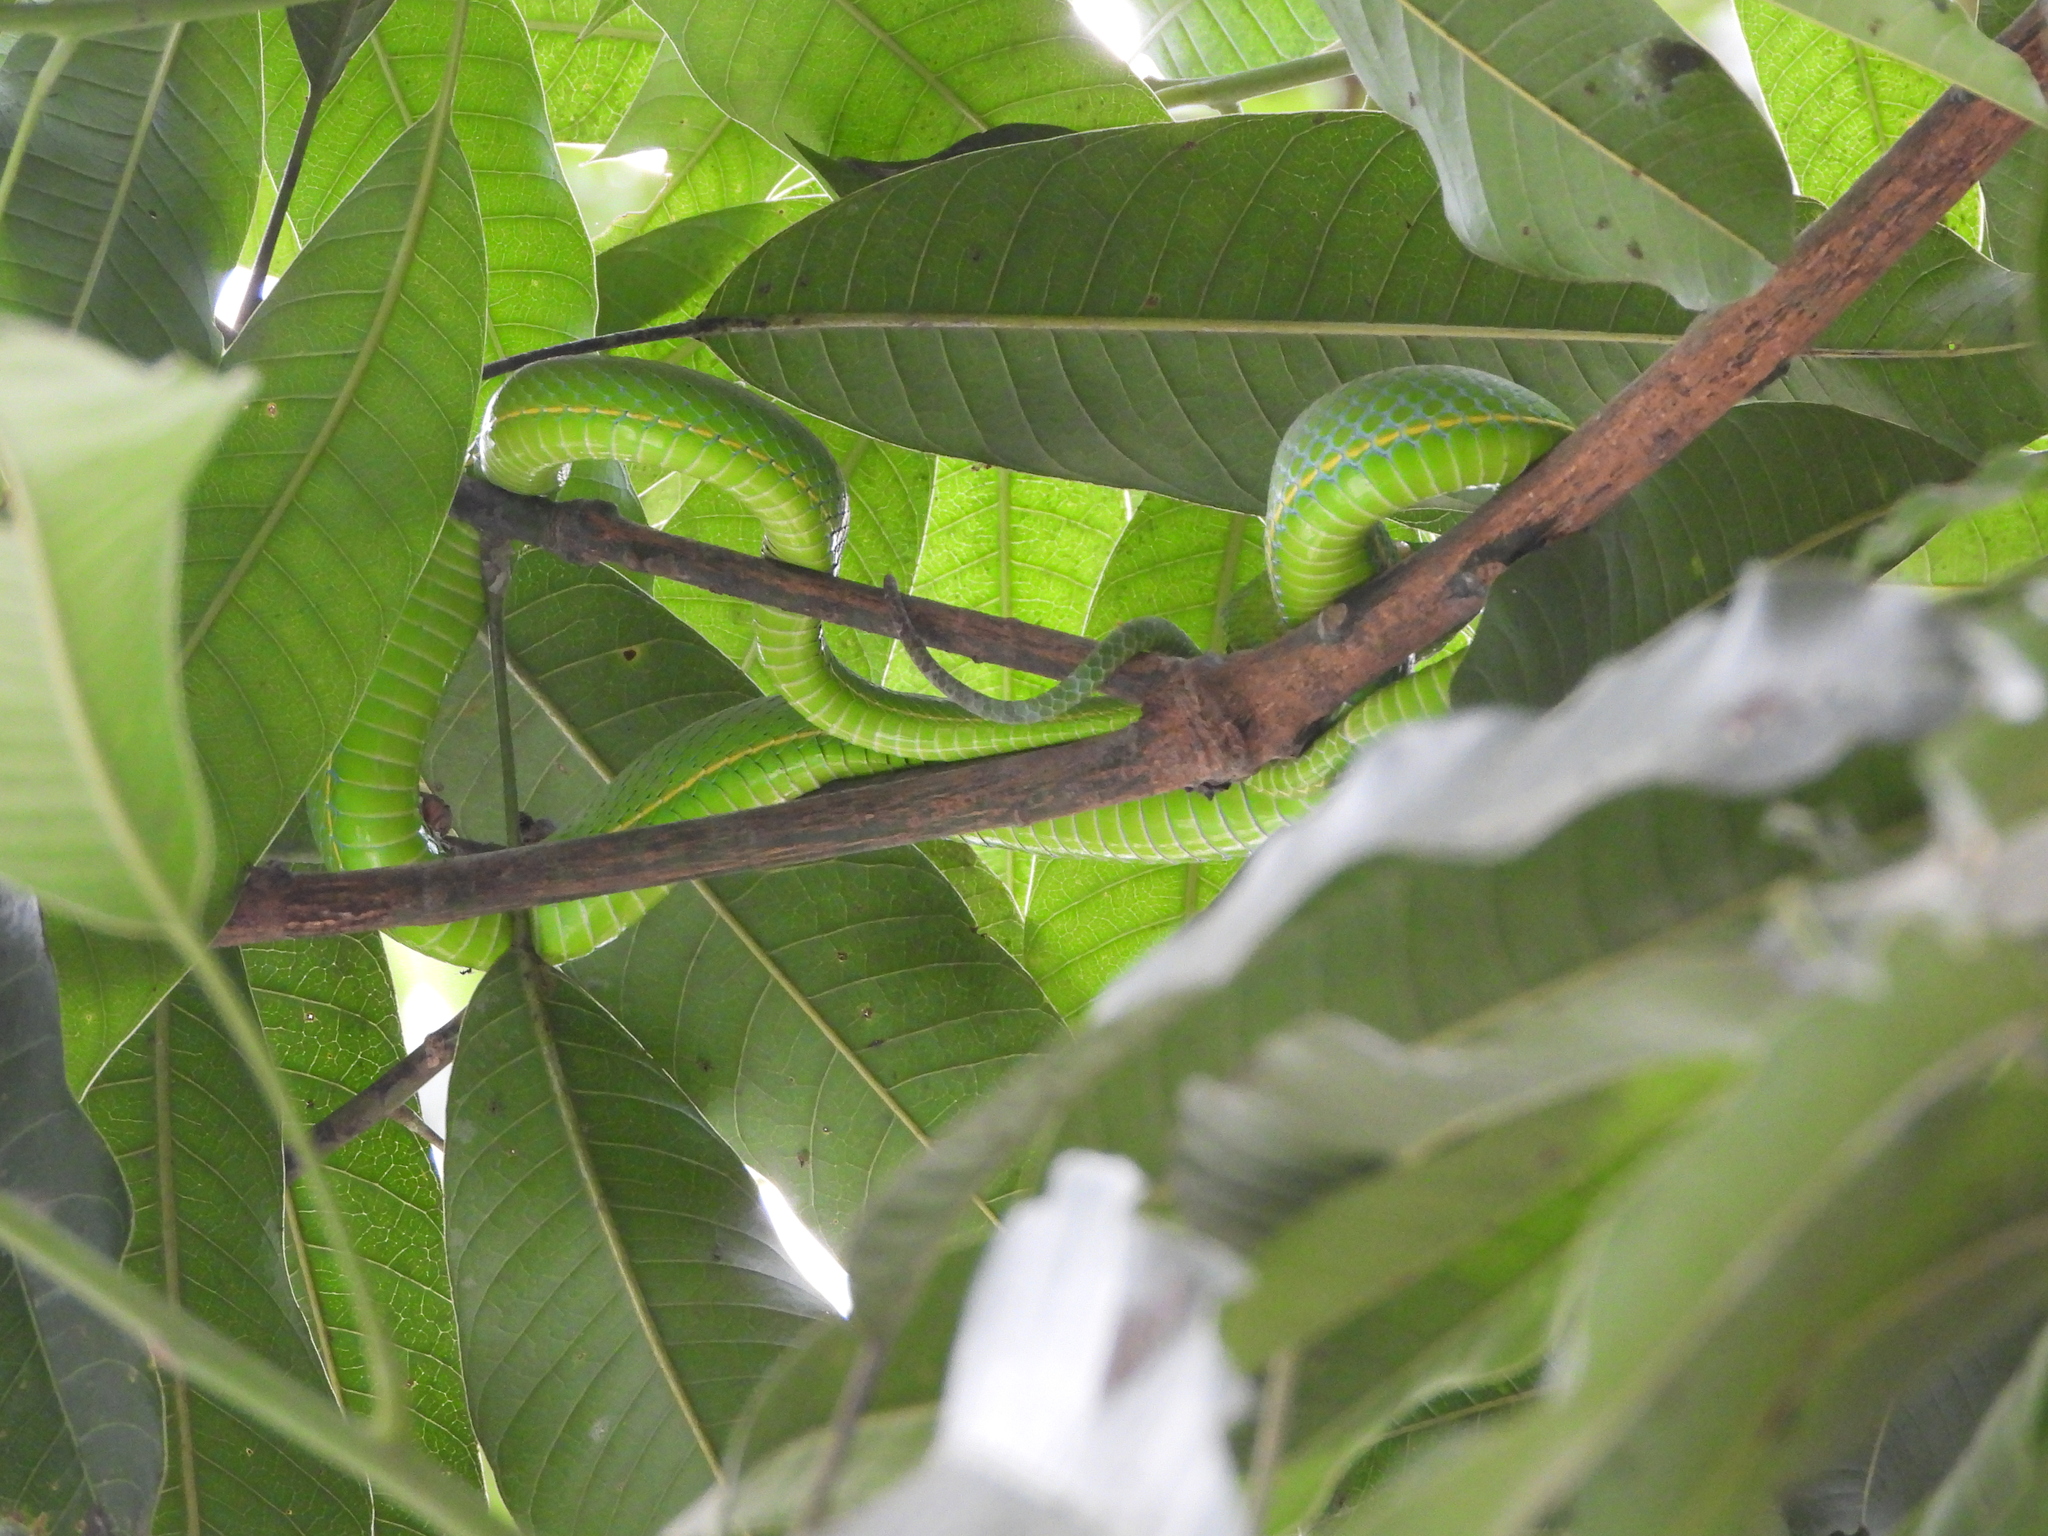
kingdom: Animalia
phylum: Chordata
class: Squamata
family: Viperidae
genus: Trimeresurus
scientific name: Trimeresurus vogeli
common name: Vogel's pit viper
